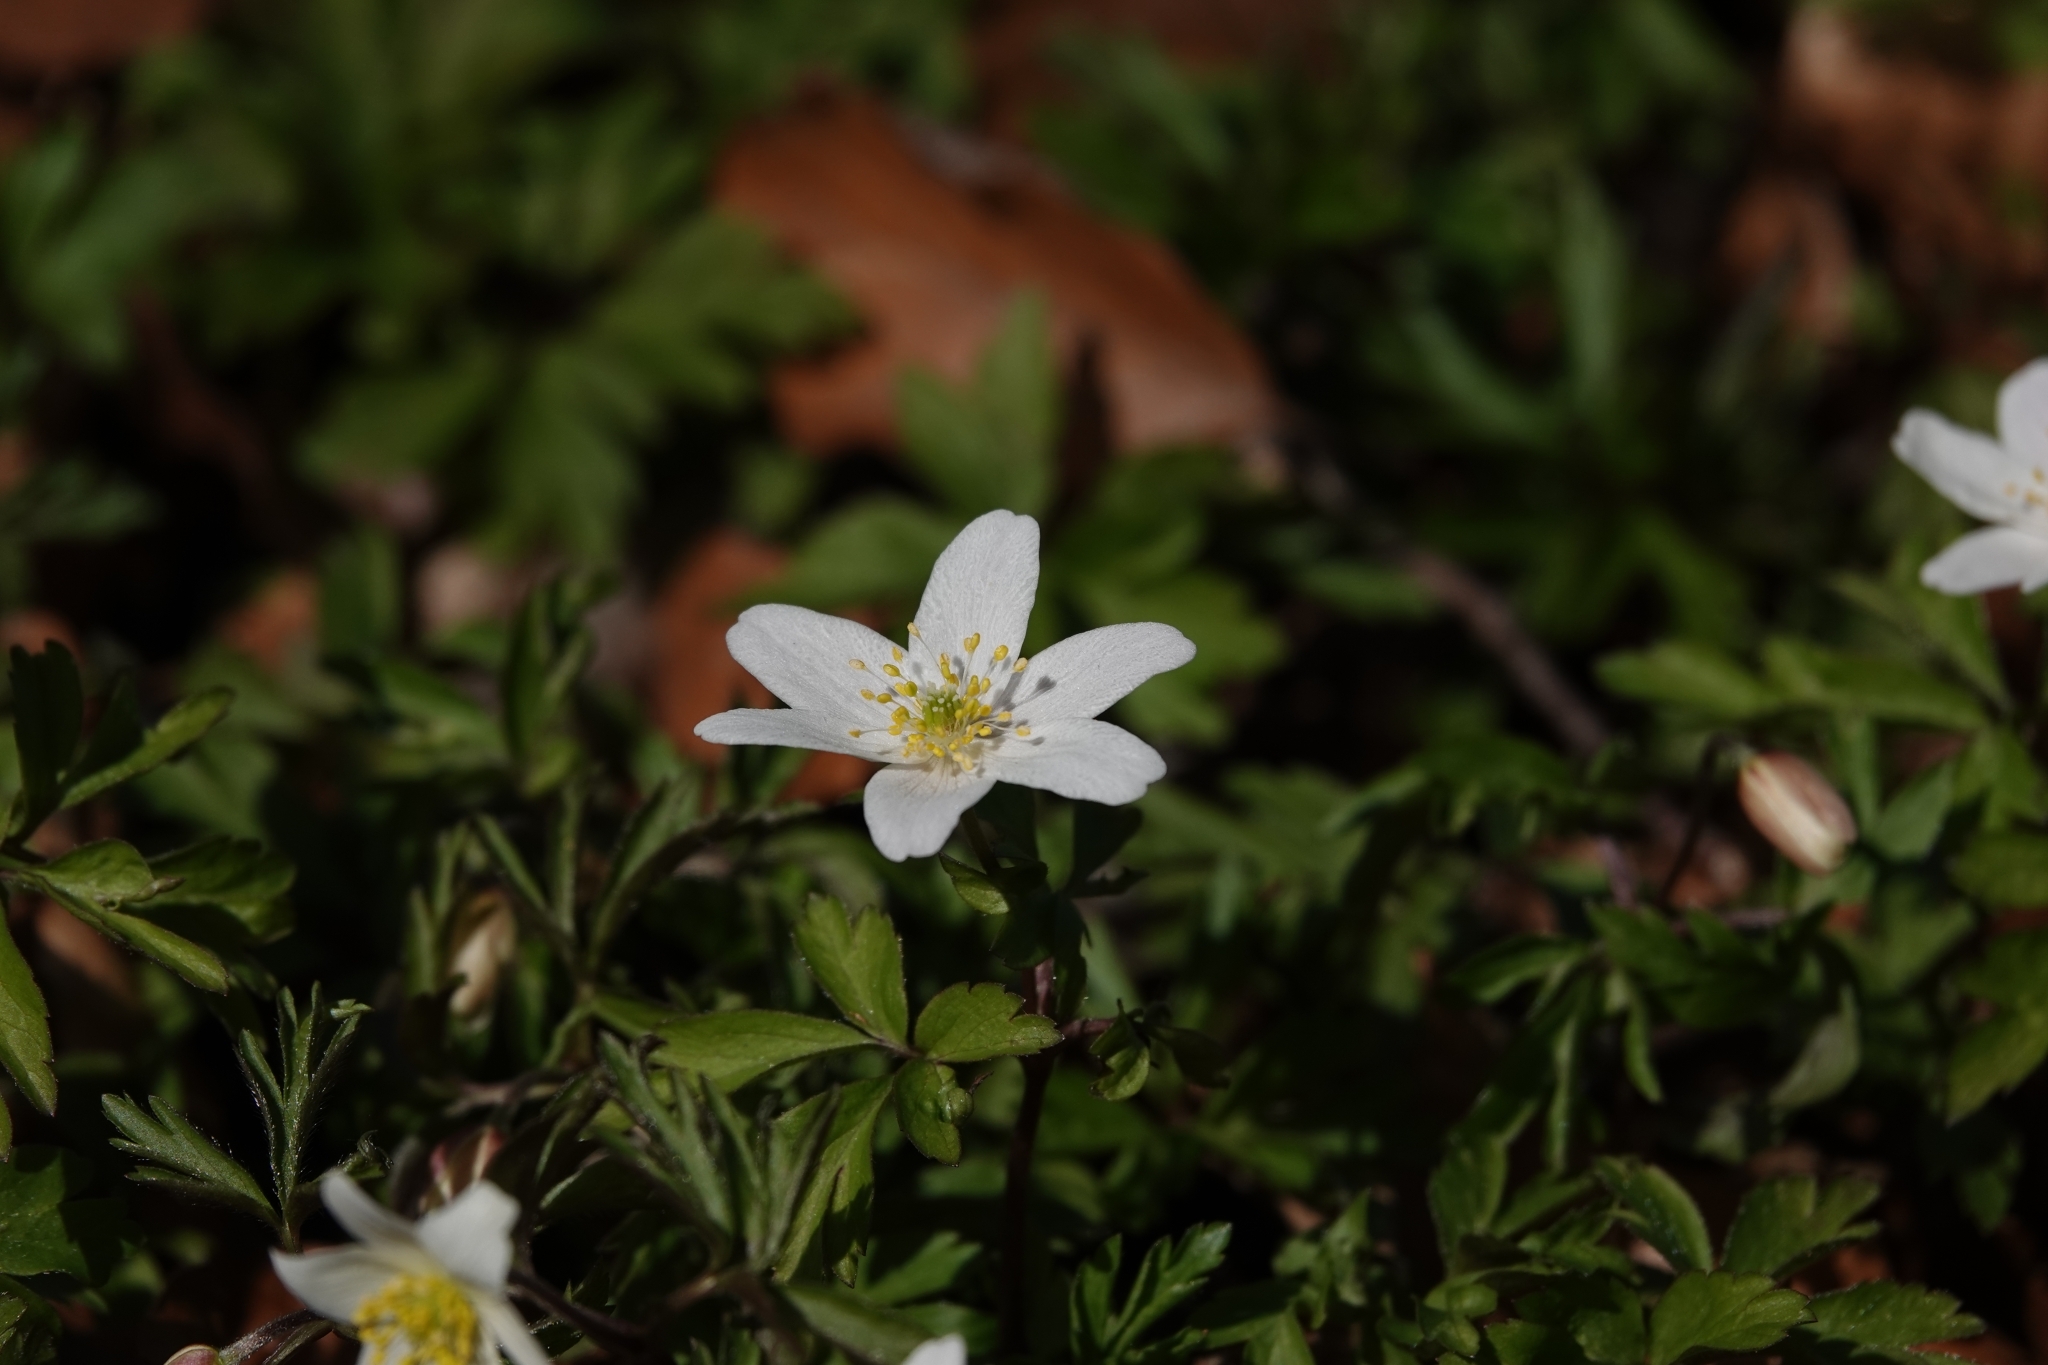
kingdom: Plantae
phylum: Tracheophyta
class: Magnoliopsida
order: Ranunculales
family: Ranunculaceae
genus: Anemone
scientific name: Anemone nemorosa
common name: Wood anemone
